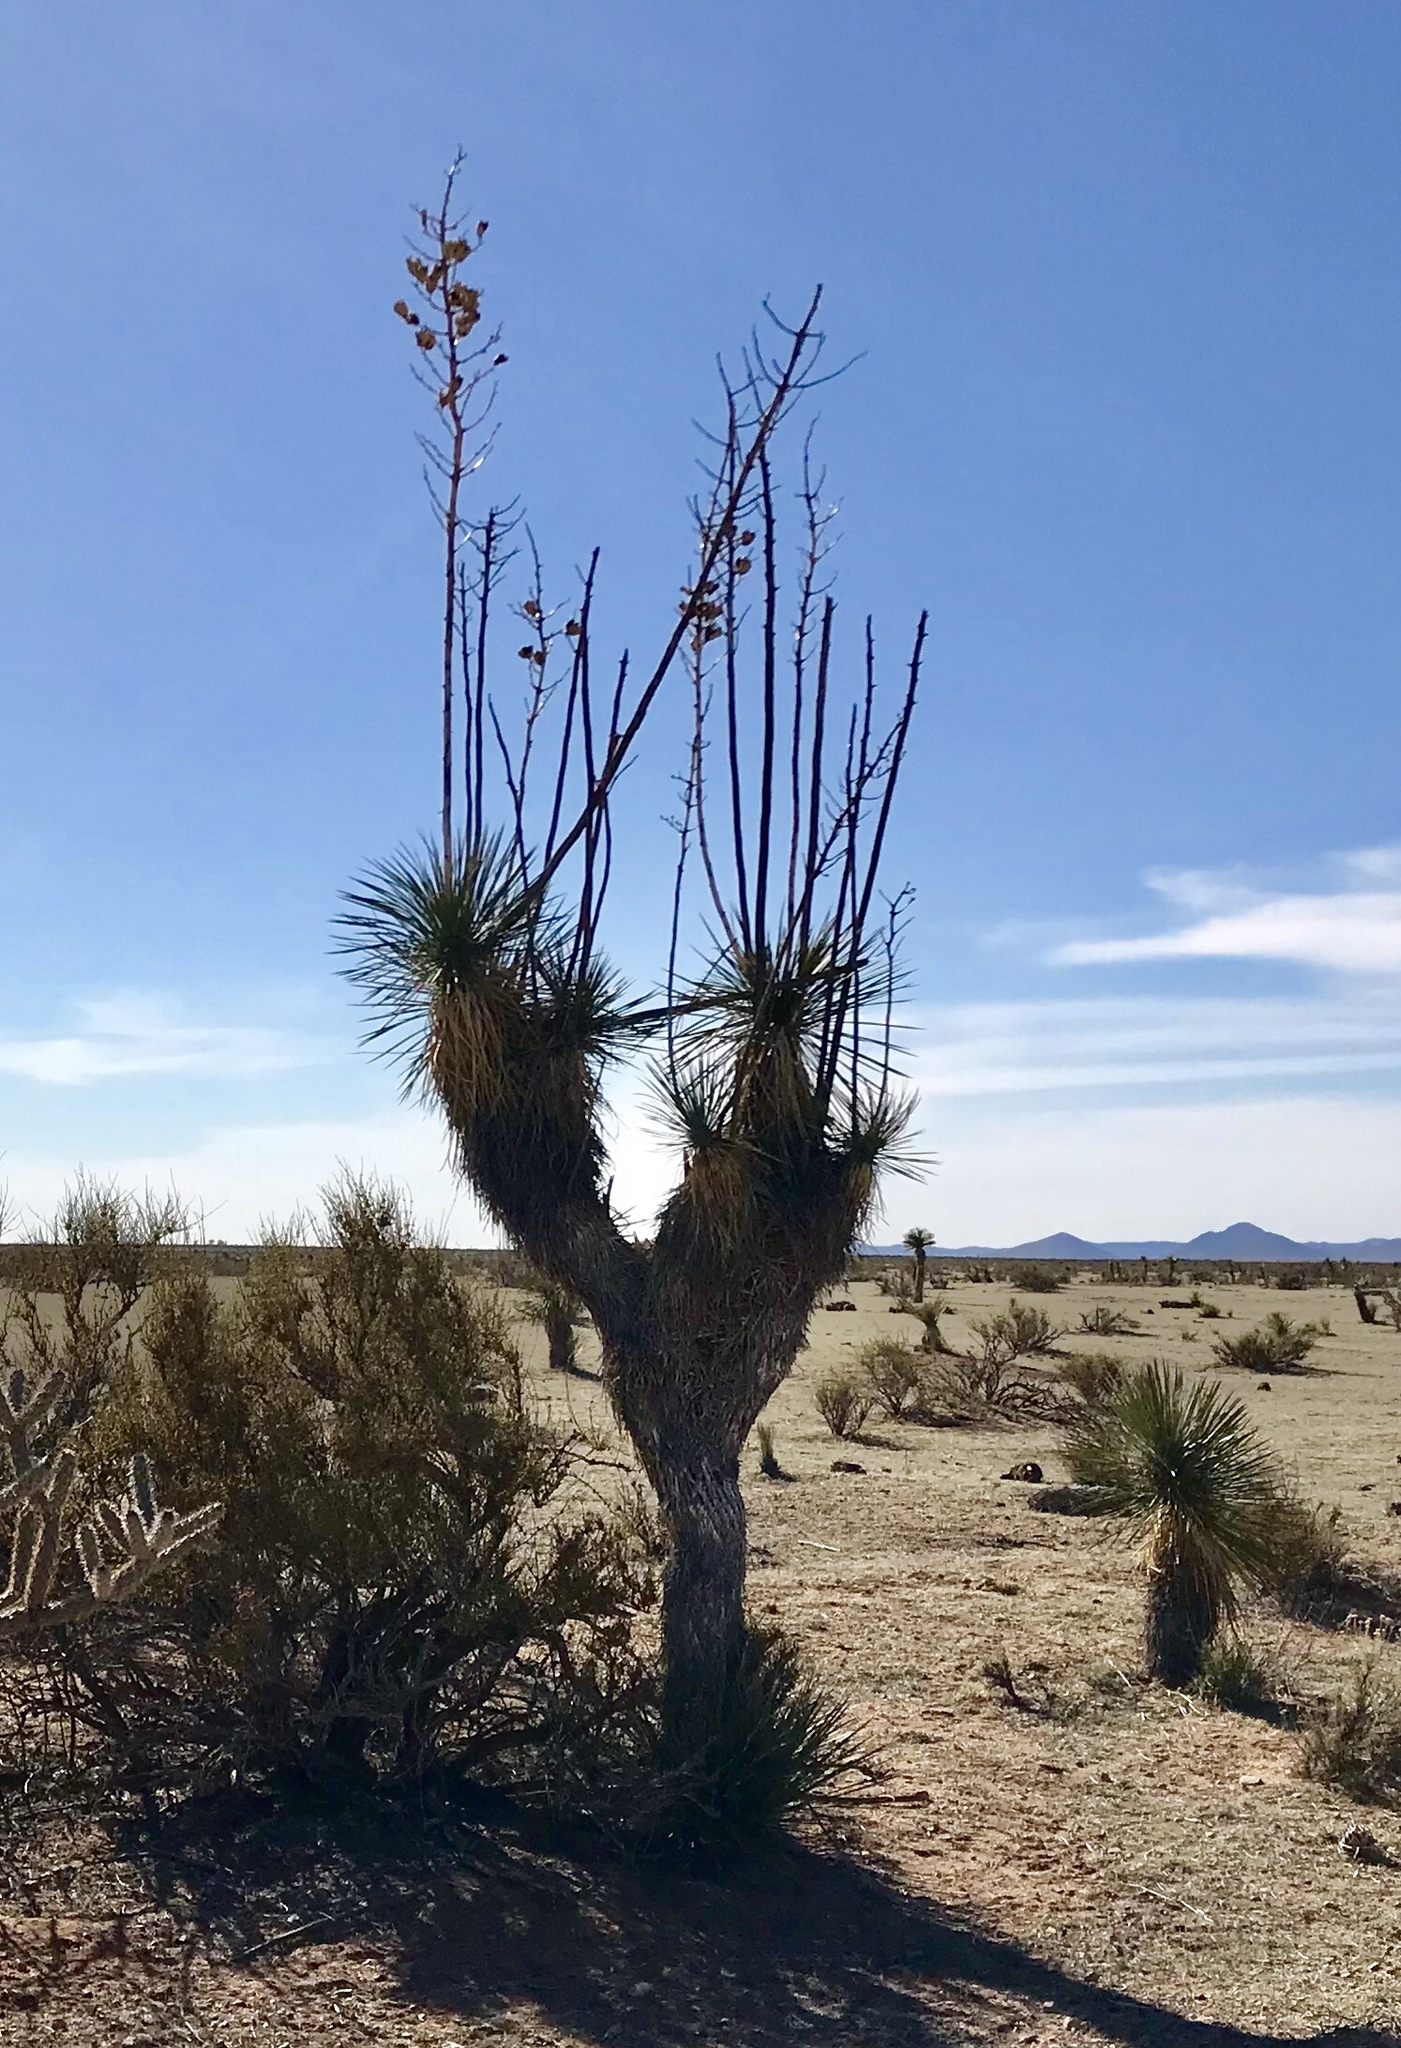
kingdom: Plantae
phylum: Tracheophyta
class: Liliopsida
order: Asparagales
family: Asparagaceae
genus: Yucca
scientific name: Yucca elata
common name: Palmella
